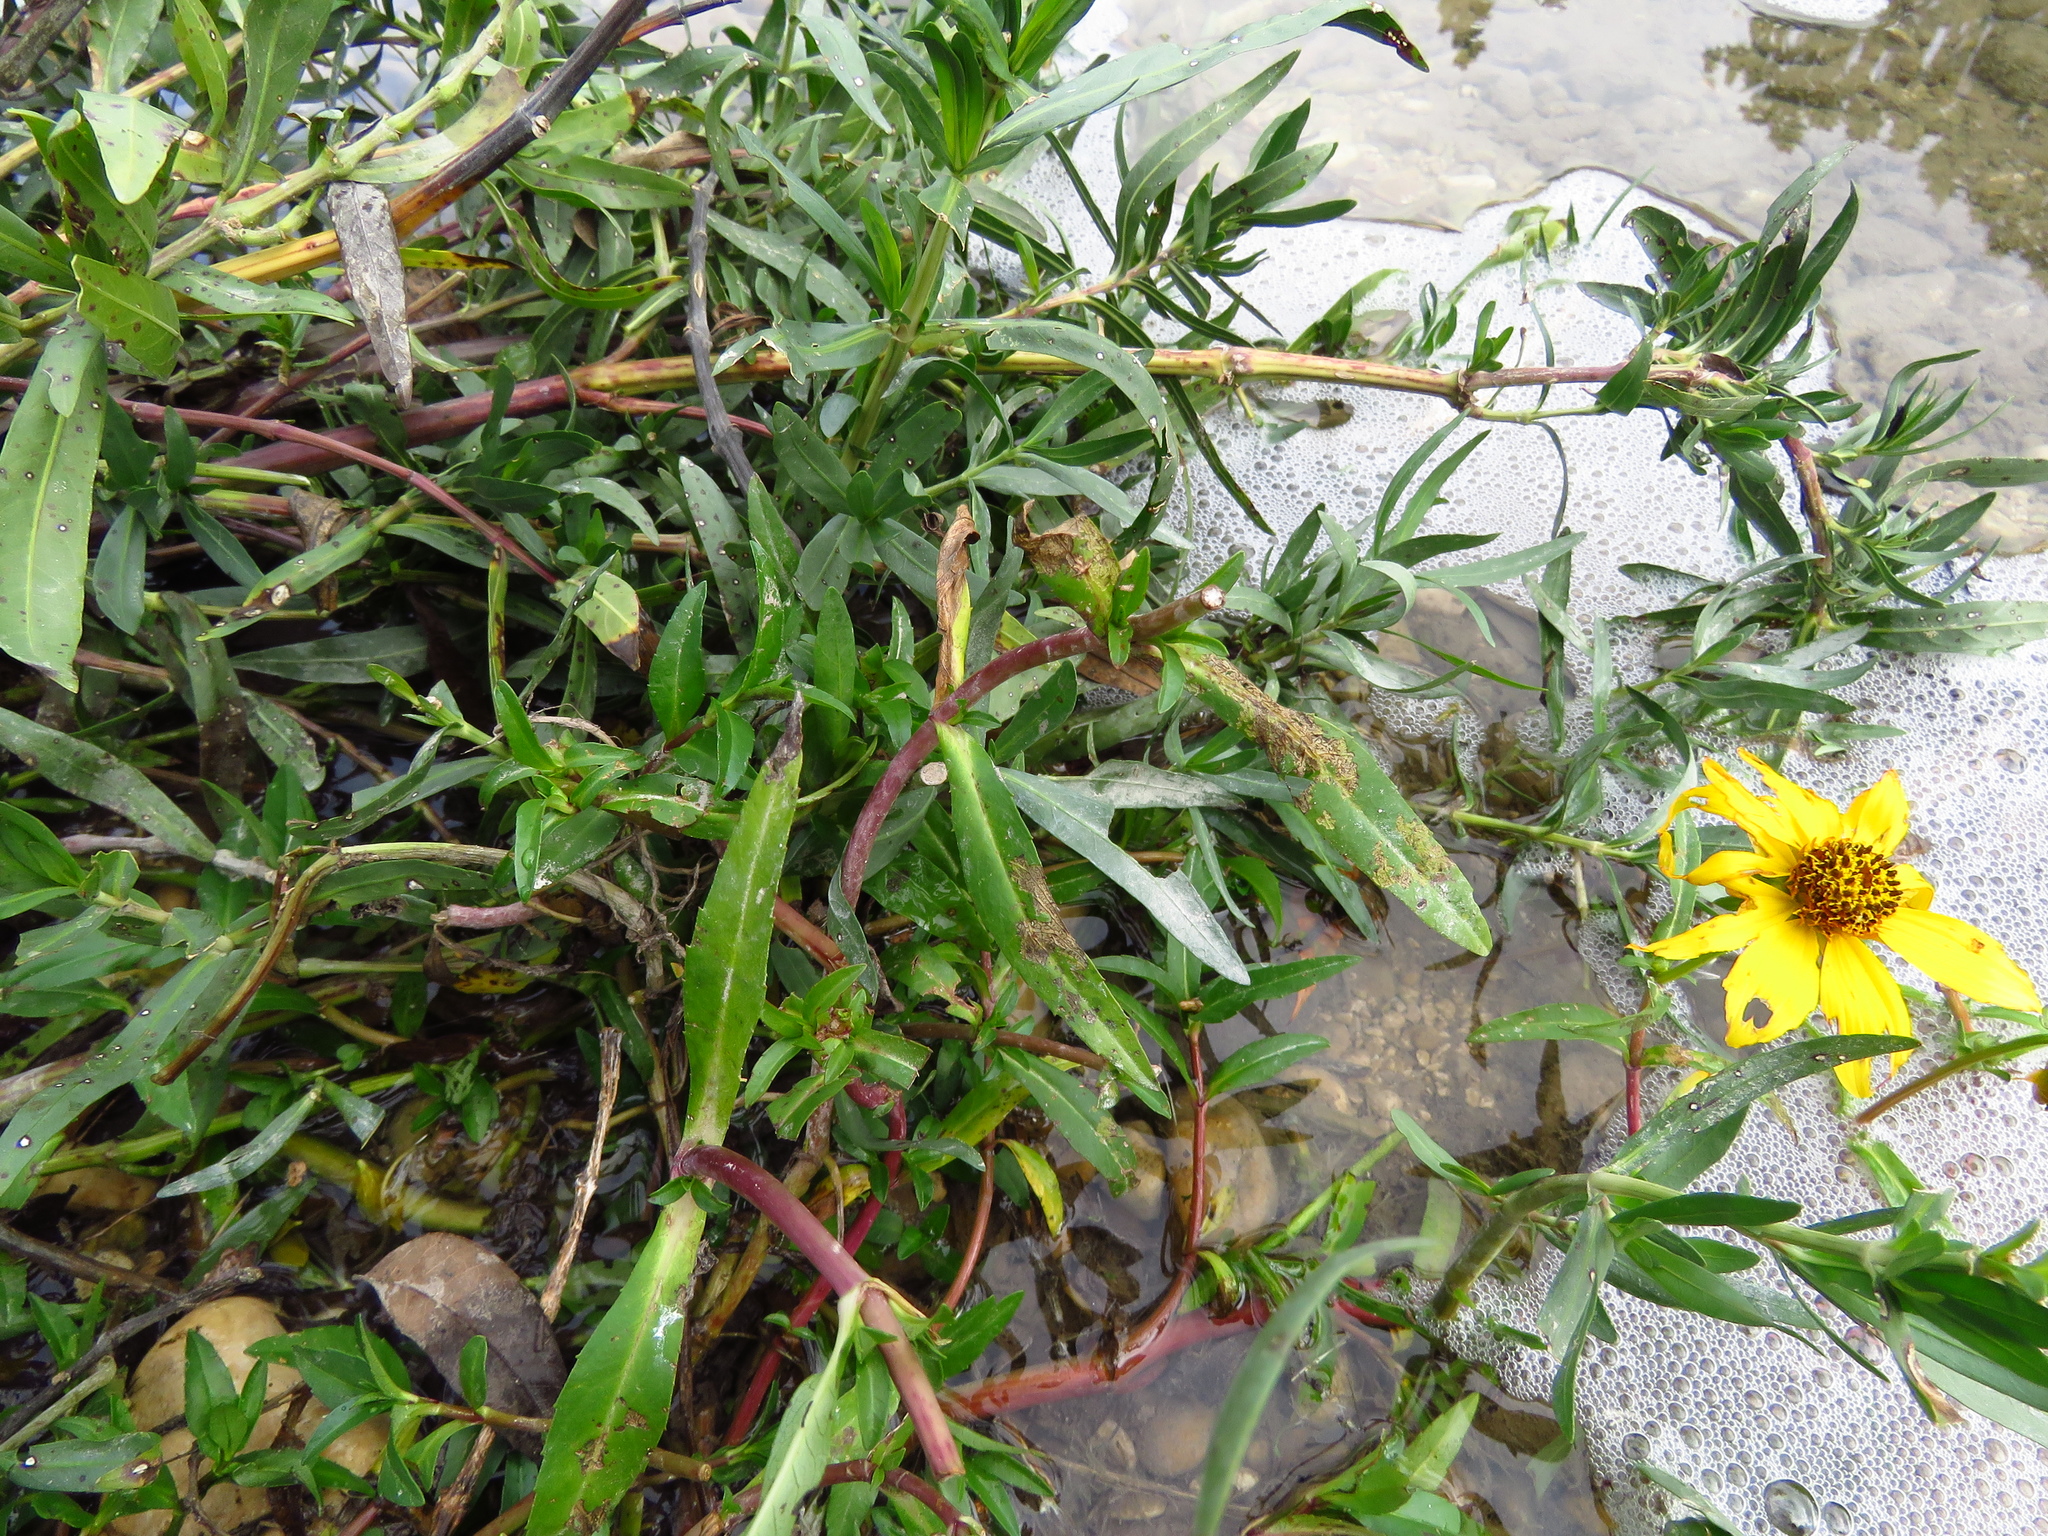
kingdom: Plantae
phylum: Tracheophyta
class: Magnoliopsida
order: Asterales
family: Asteraceae
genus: Bidens
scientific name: Bidens laevis
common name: Larger bur-marigold
